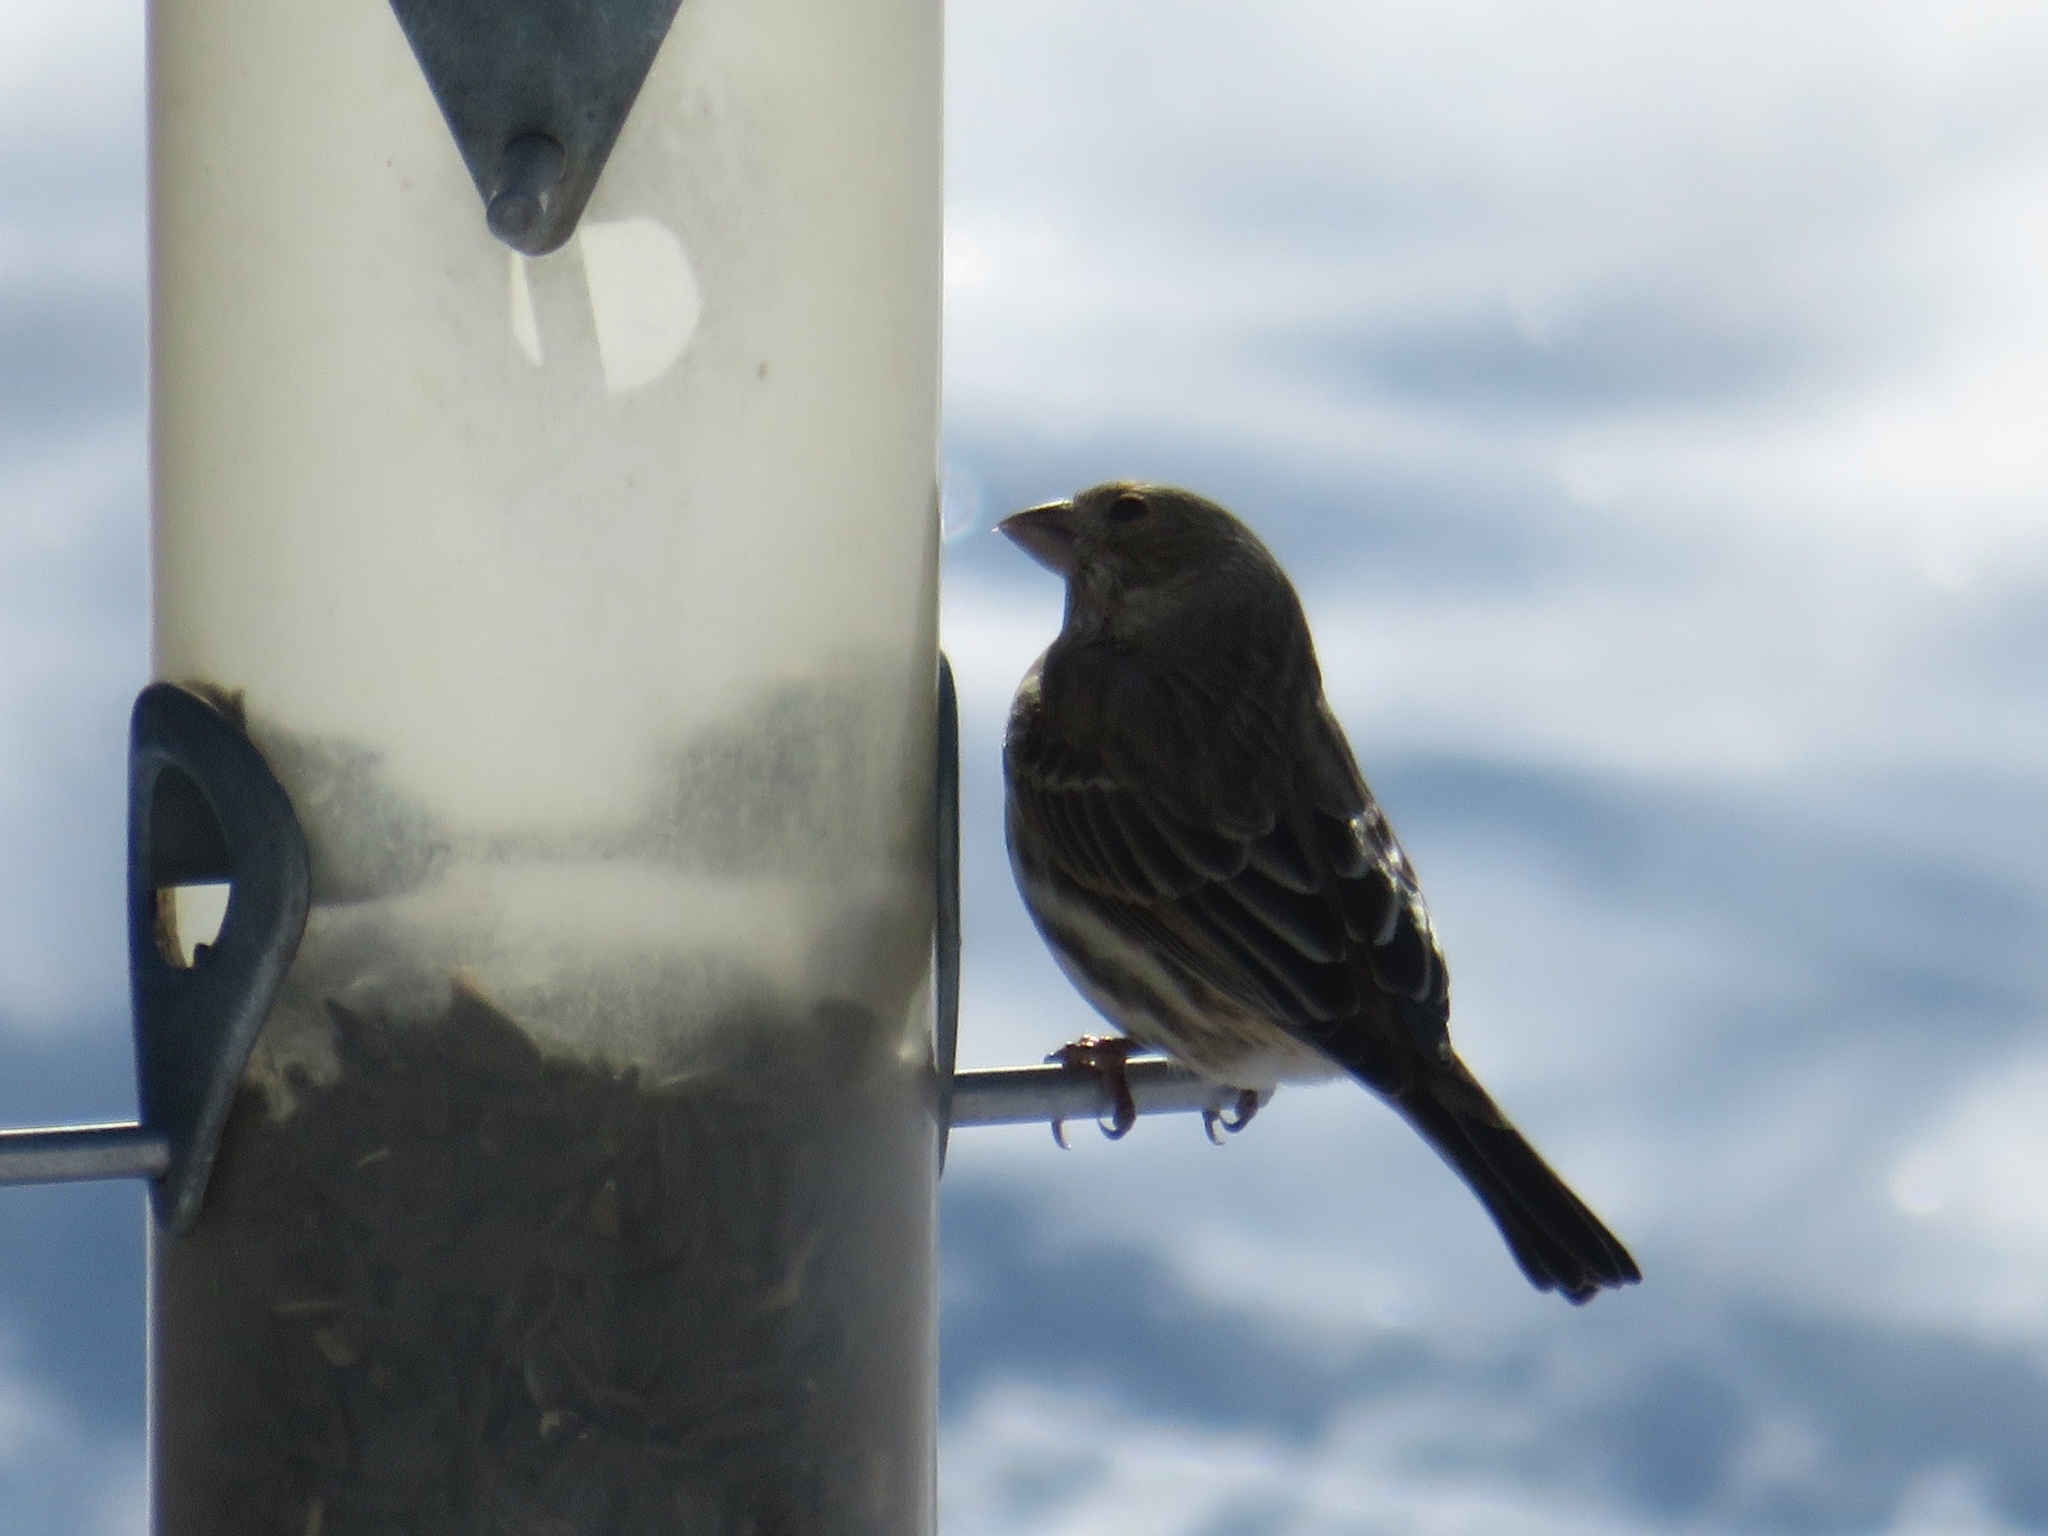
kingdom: Animalia
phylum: Chordata
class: Aves
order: Passeriformes
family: Fringillidae
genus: Haemorhous
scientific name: Haemorhous mexicanus
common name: House finch
